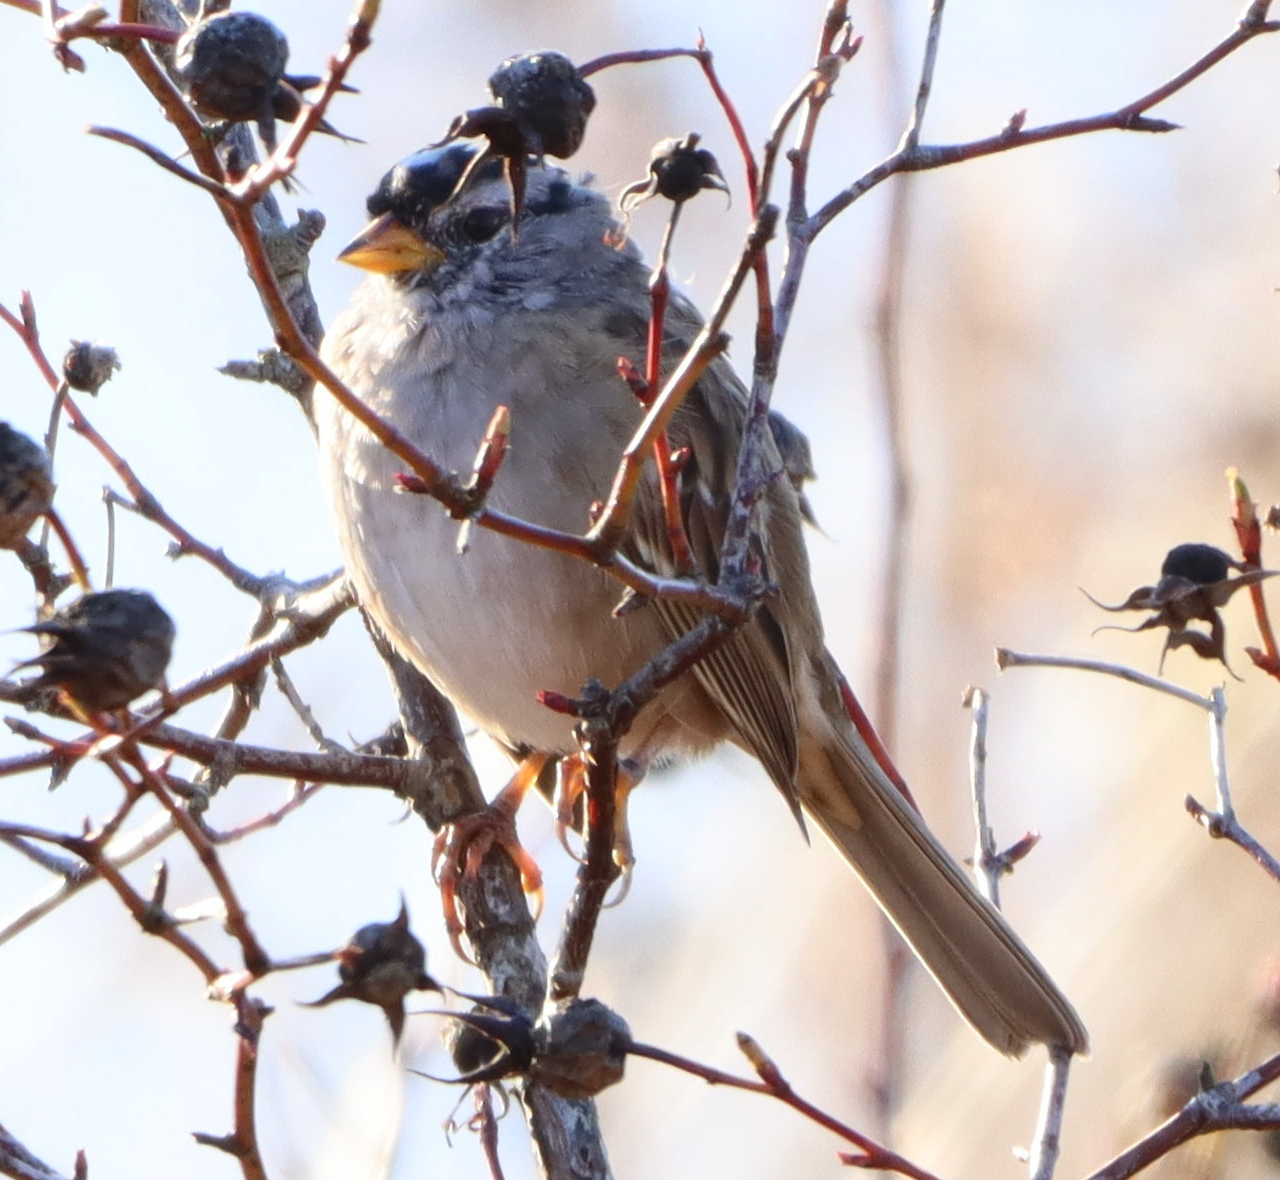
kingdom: Animalia
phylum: Chordata
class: Aves
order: Passeriformes
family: Passerellidae
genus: Zonotrichia
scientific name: Zonotrichia leucophrys
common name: White-crowned sparrow
